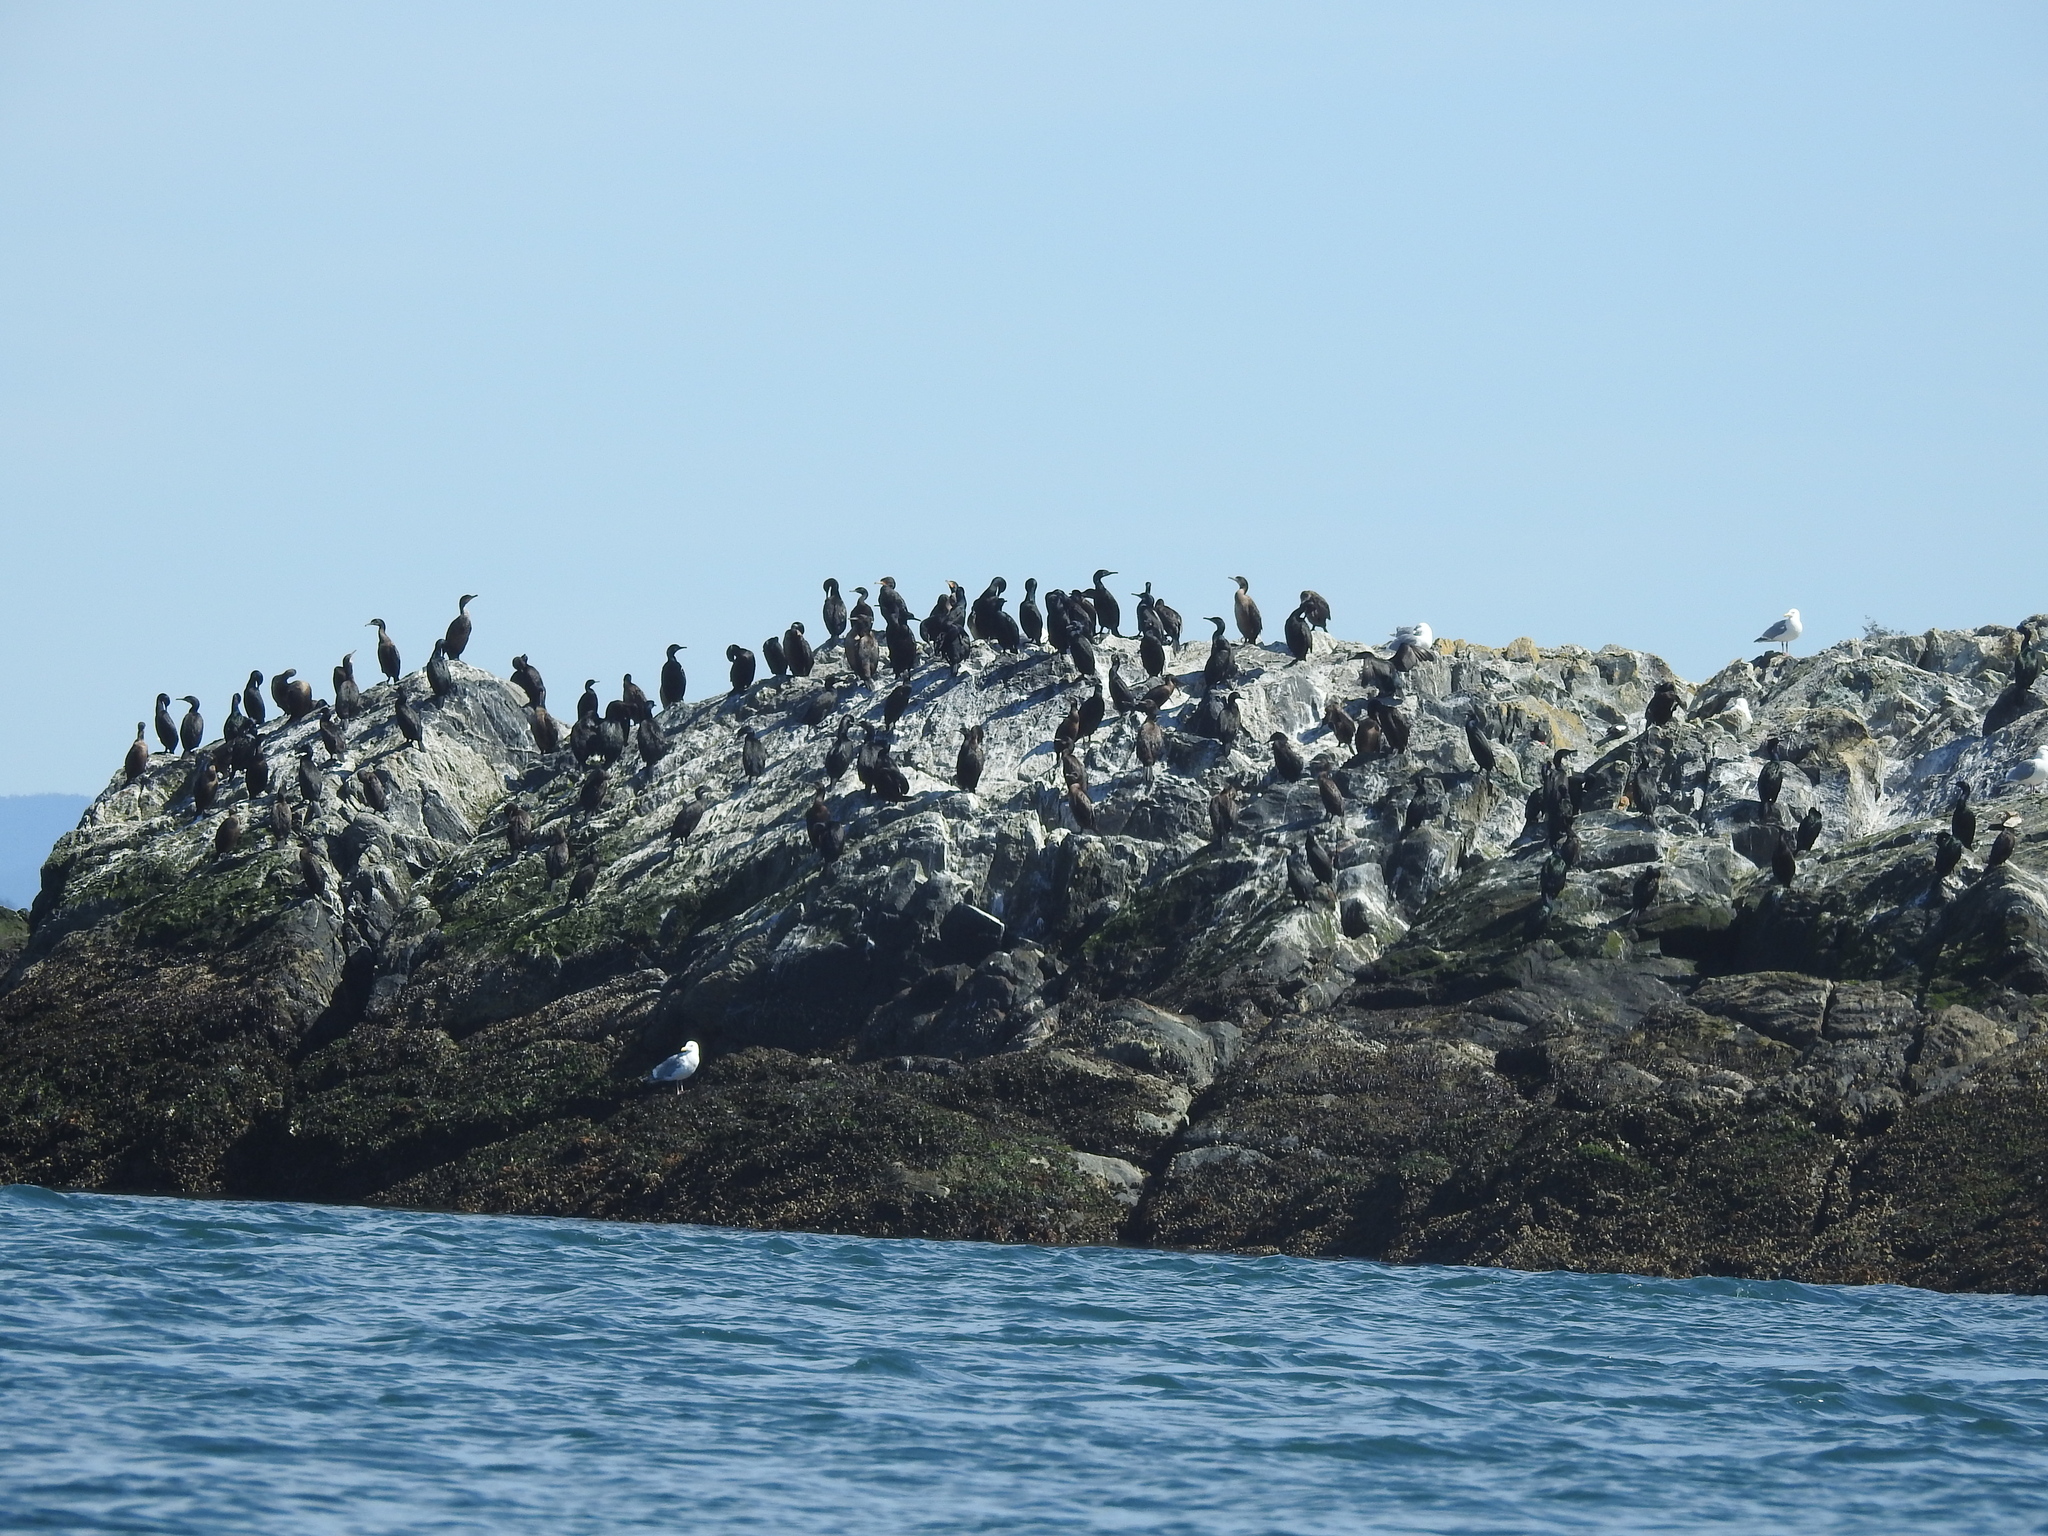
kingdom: Animalia
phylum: Chordata
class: Aves
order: Suliformes
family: Phalacrocoracidae
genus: Urile
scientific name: Urile penicillatus
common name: Brandt's cormorant
